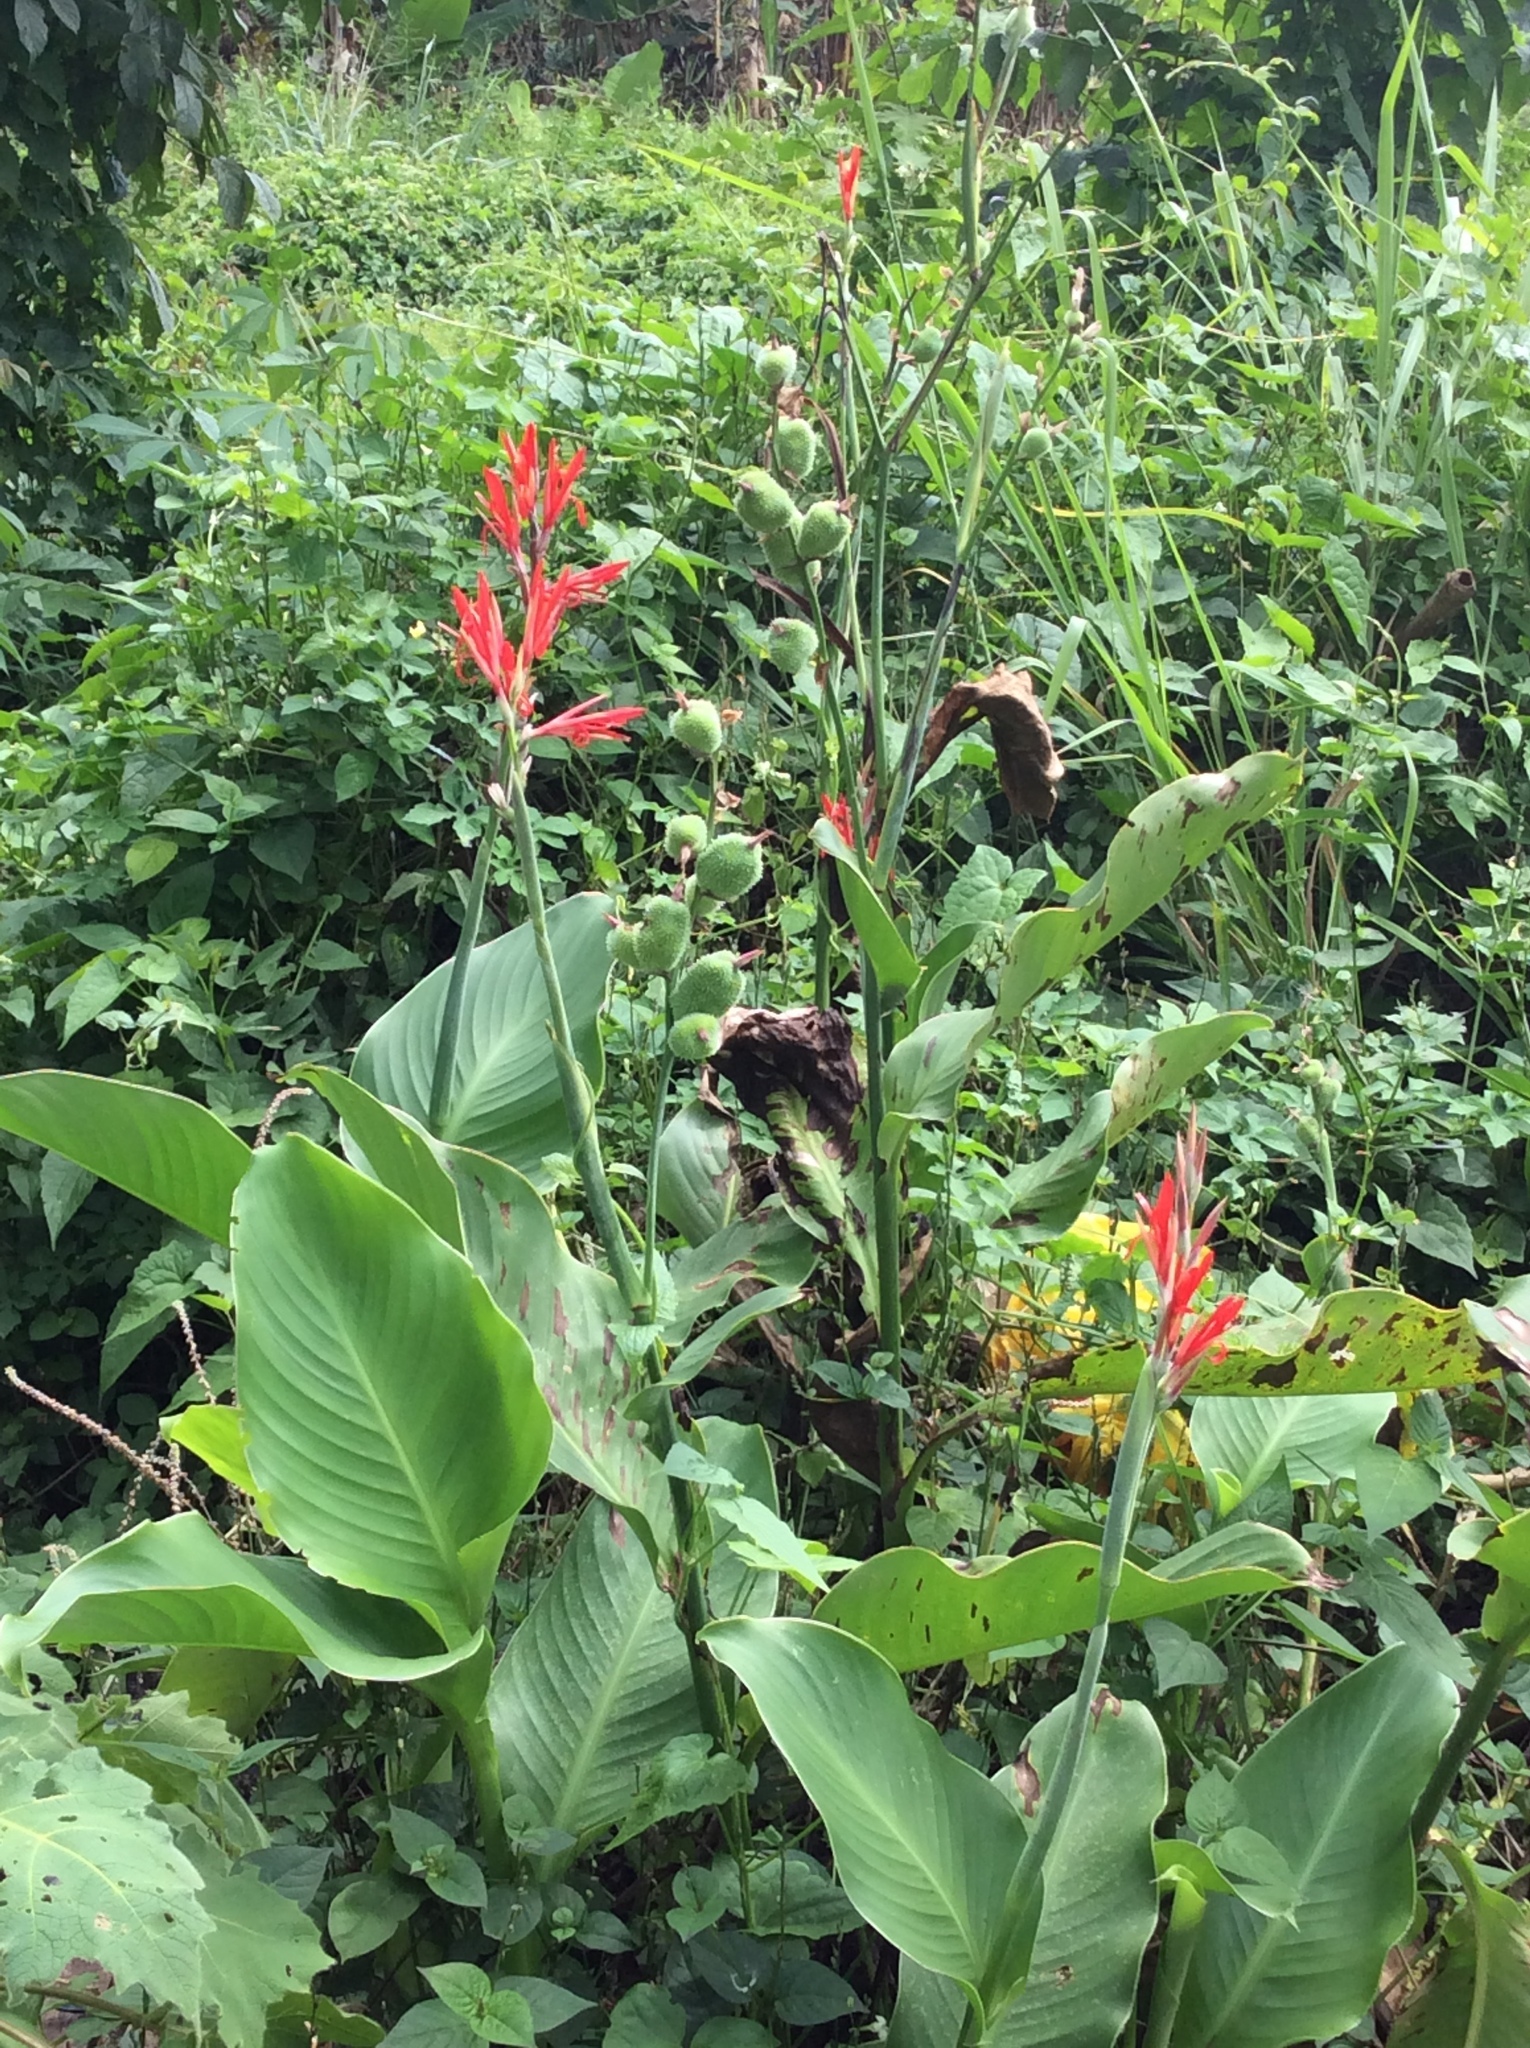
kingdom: Plantae
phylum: Tracheophyta
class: Liliopsida
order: Zingiberales
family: Cannaceae
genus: Canna
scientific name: Canna indica
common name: Indian shot
